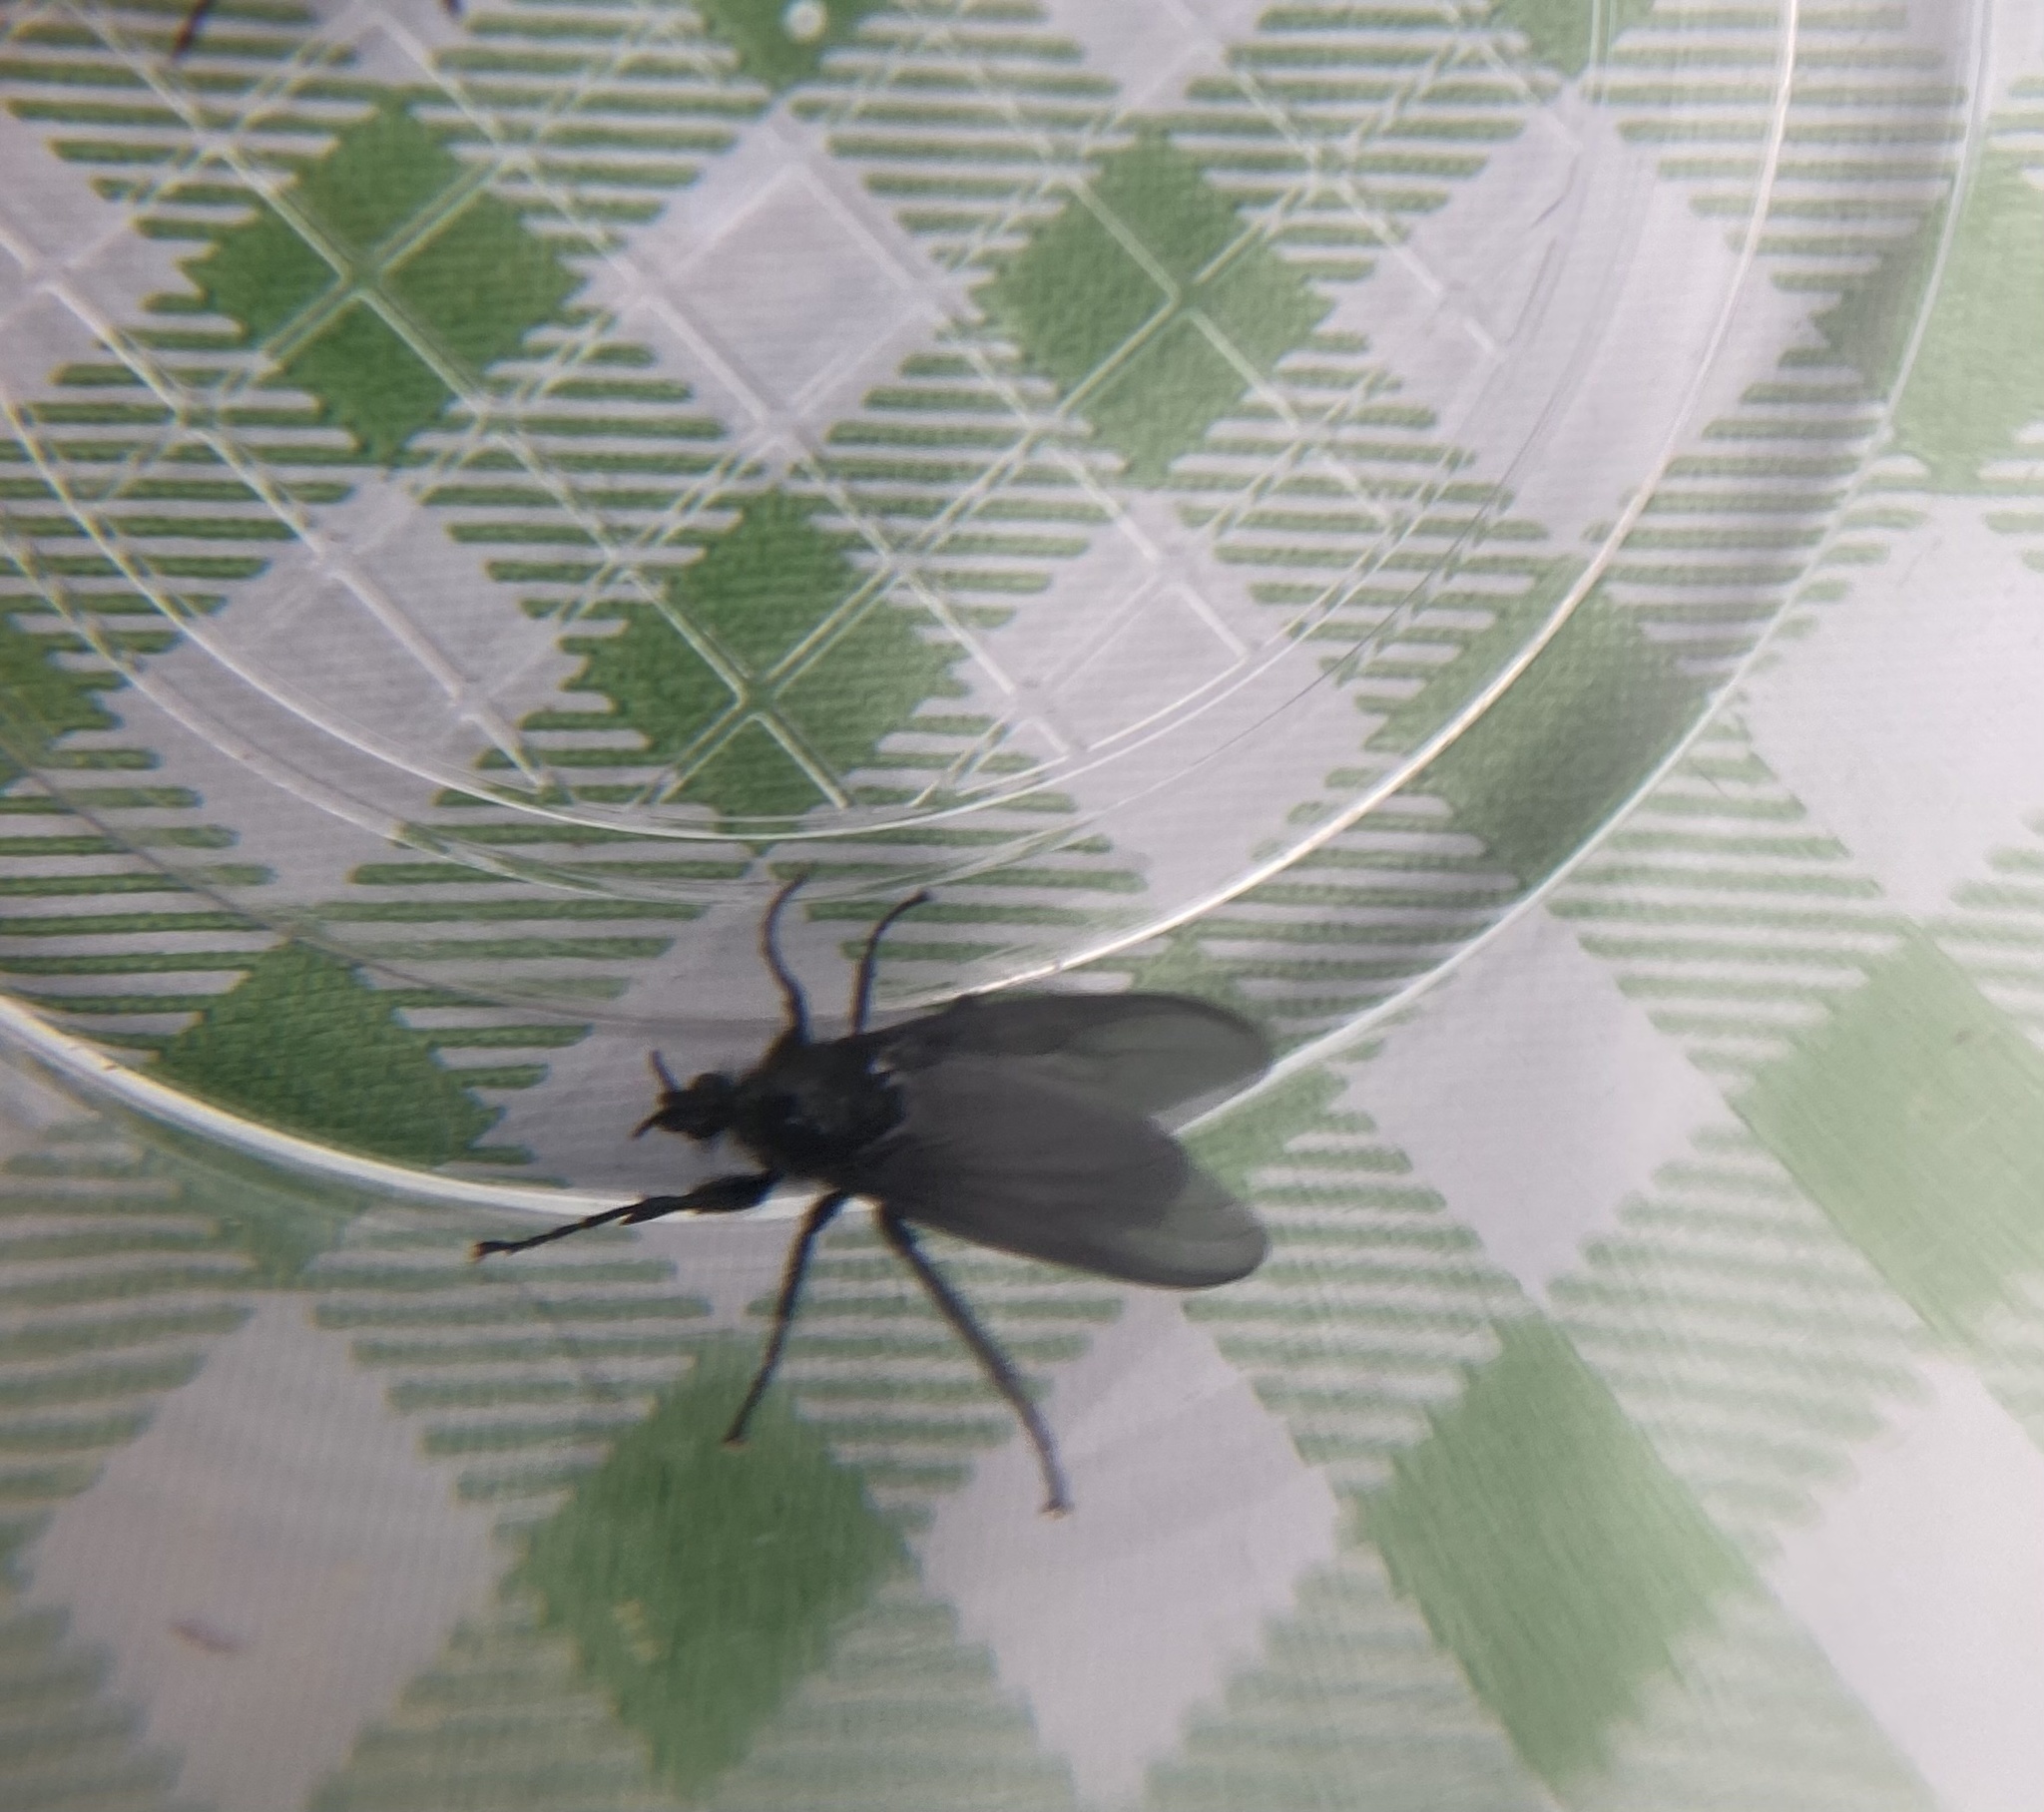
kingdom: Animalia
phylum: Arthropoda
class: Insecta
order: Diptera
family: Bibionidae
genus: Bibio
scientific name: Bibio marci
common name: St marks fly
